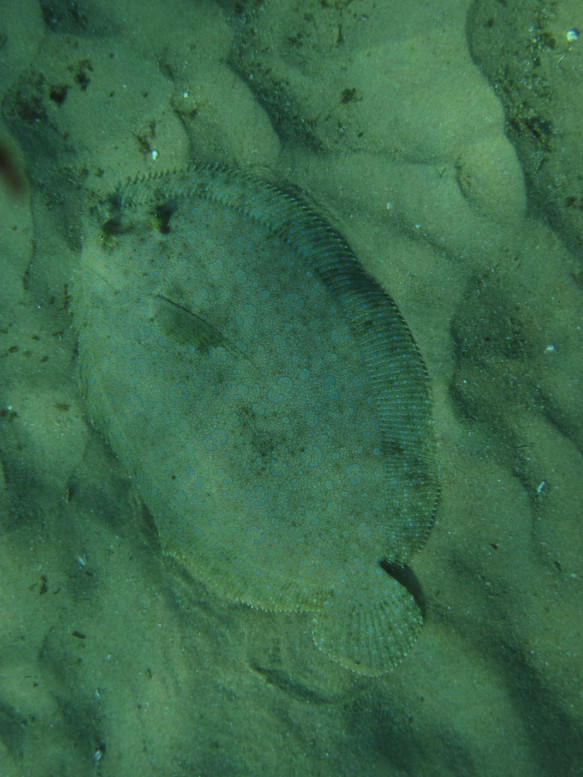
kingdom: Animalia
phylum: Chordata
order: Pleuronectiformes
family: Bothidae
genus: Bothus
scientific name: Bothus mancus
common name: Flowery flounder
